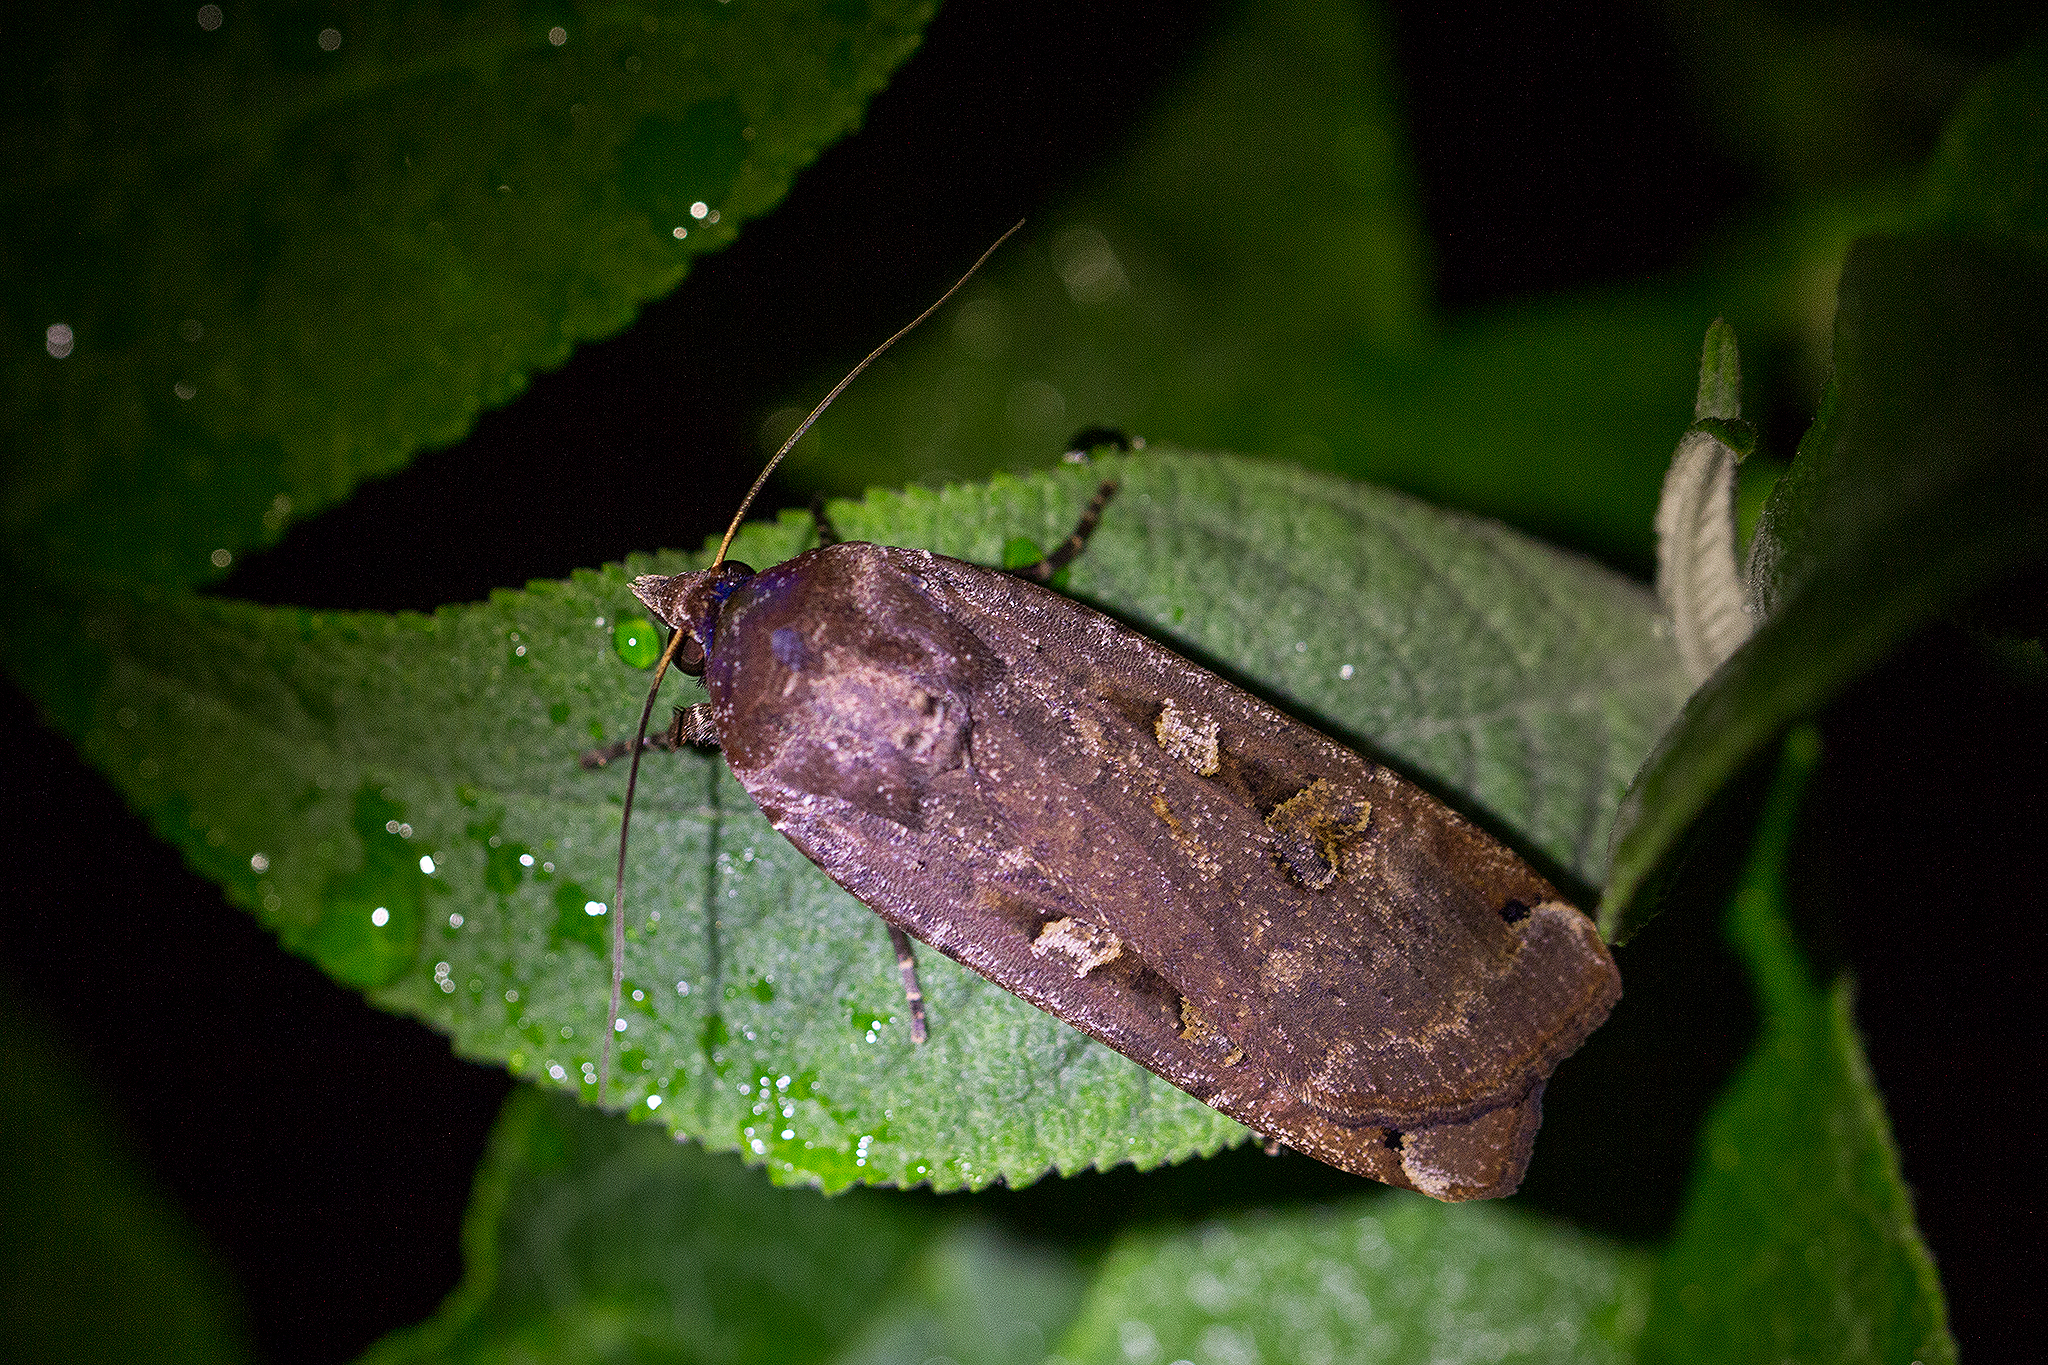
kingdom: Animalia
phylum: Arthropoda
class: Insecta
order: Lepidoptera
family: Noctuidae
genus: Noctua
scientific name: Noctua pronuba
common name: Large yellow underwing
